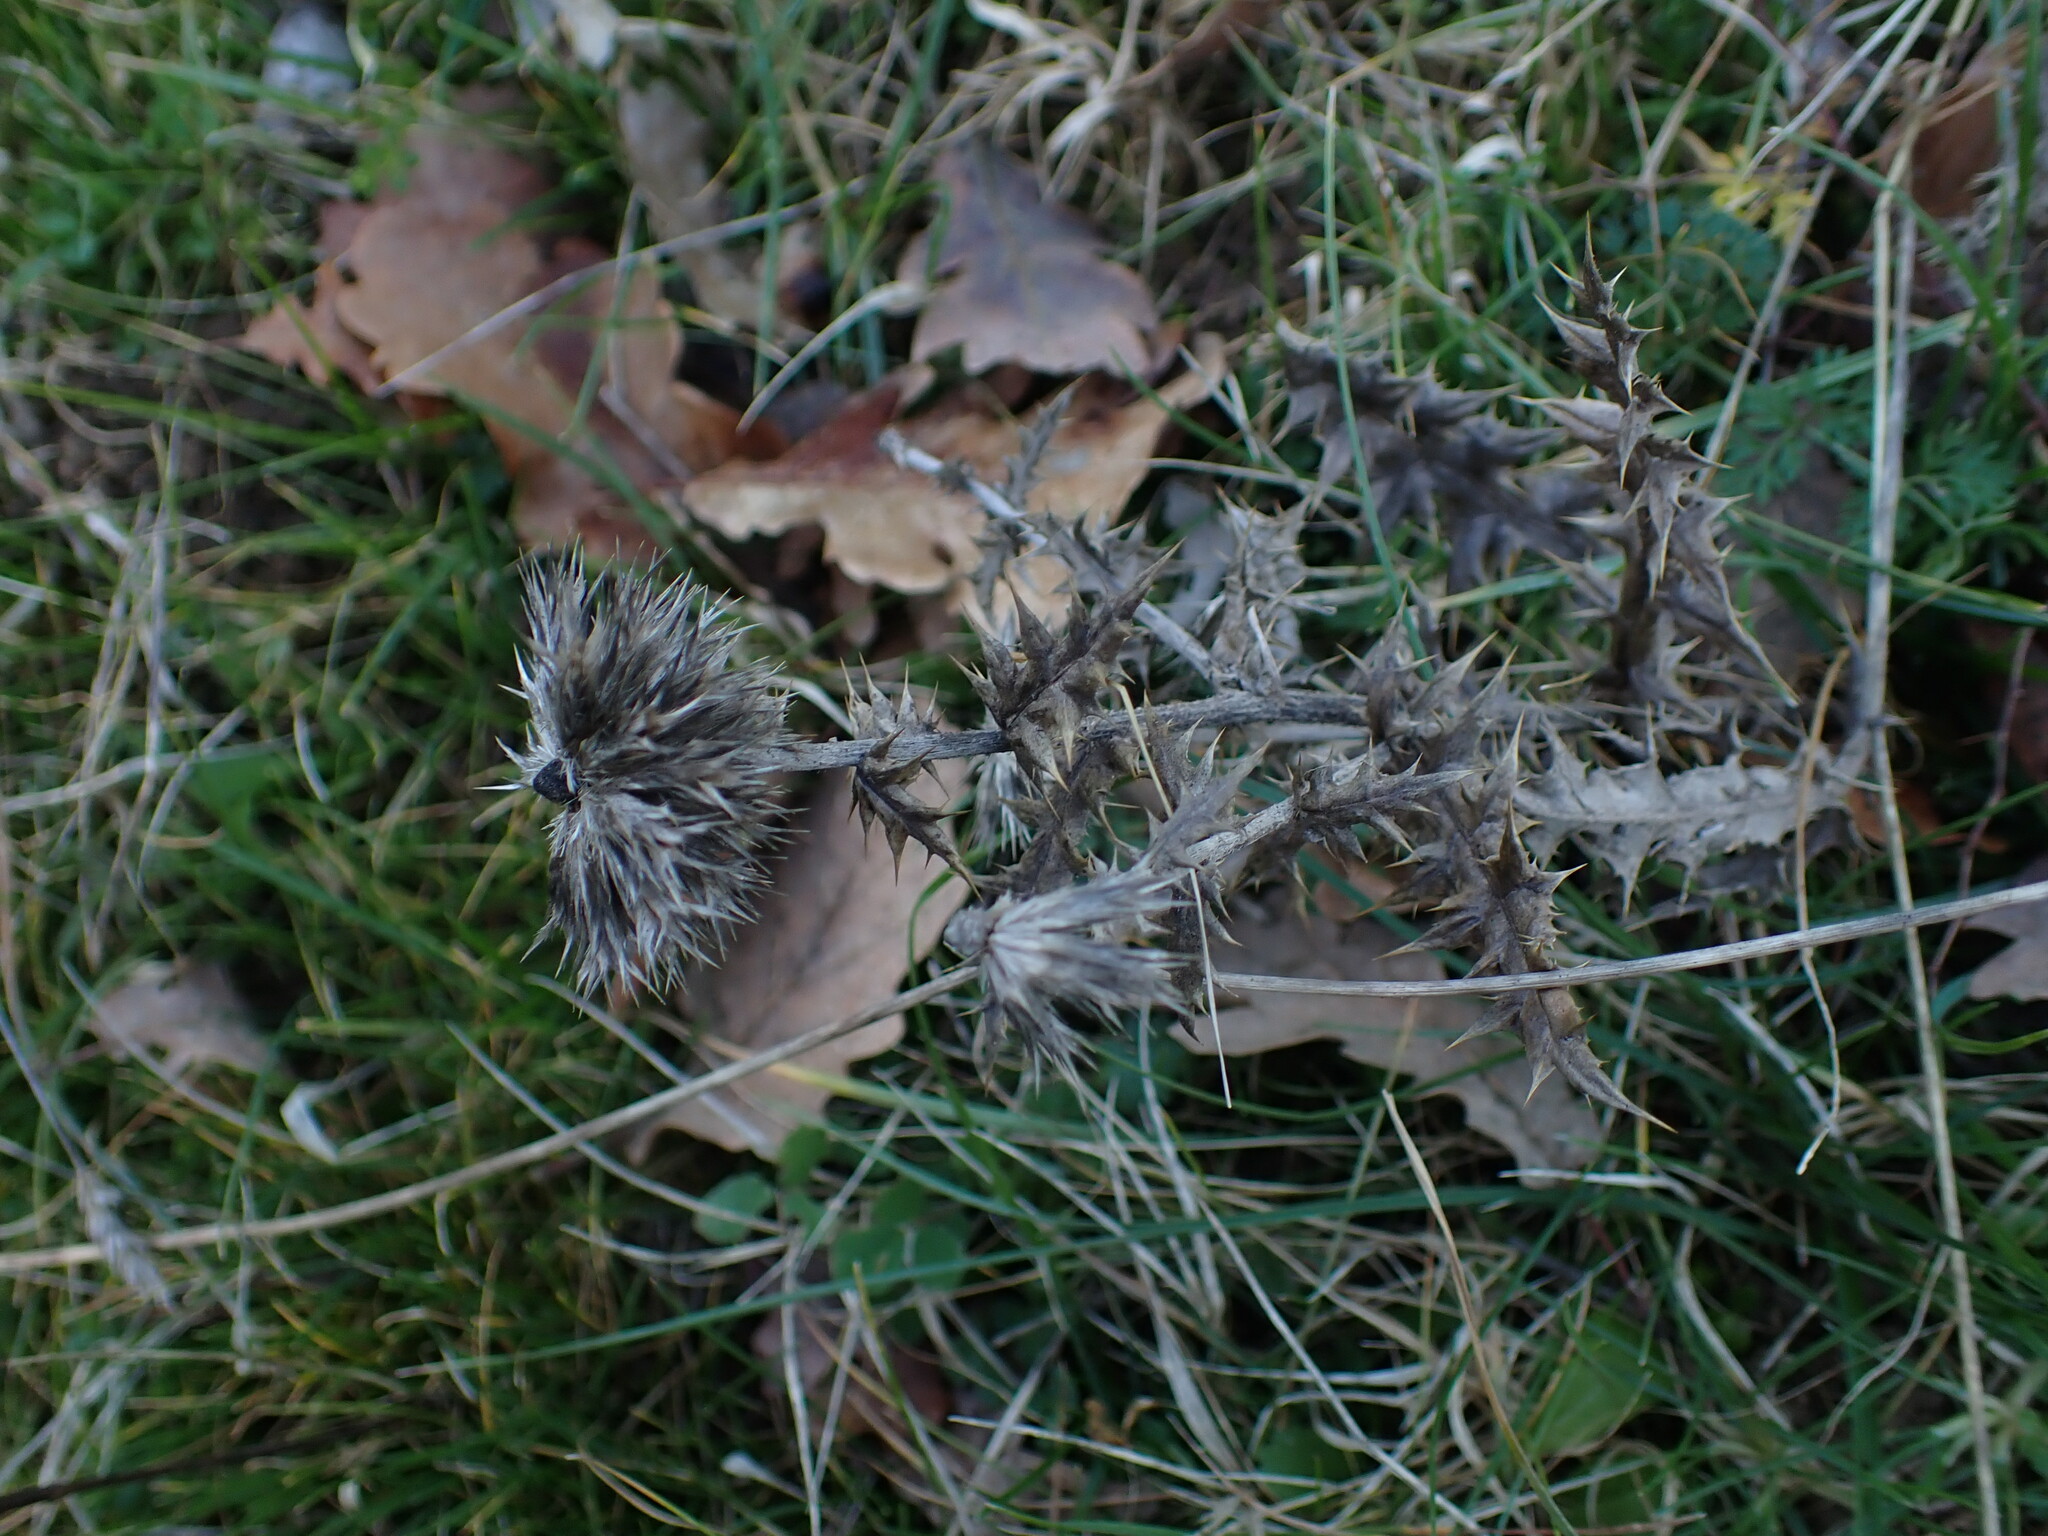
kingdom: Plantae
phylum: Tracheophyta
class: Magnoliopsida
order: Asterales
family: Asteraceae
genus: Echinops
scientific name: Echinops ritro
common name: Globe thistle
